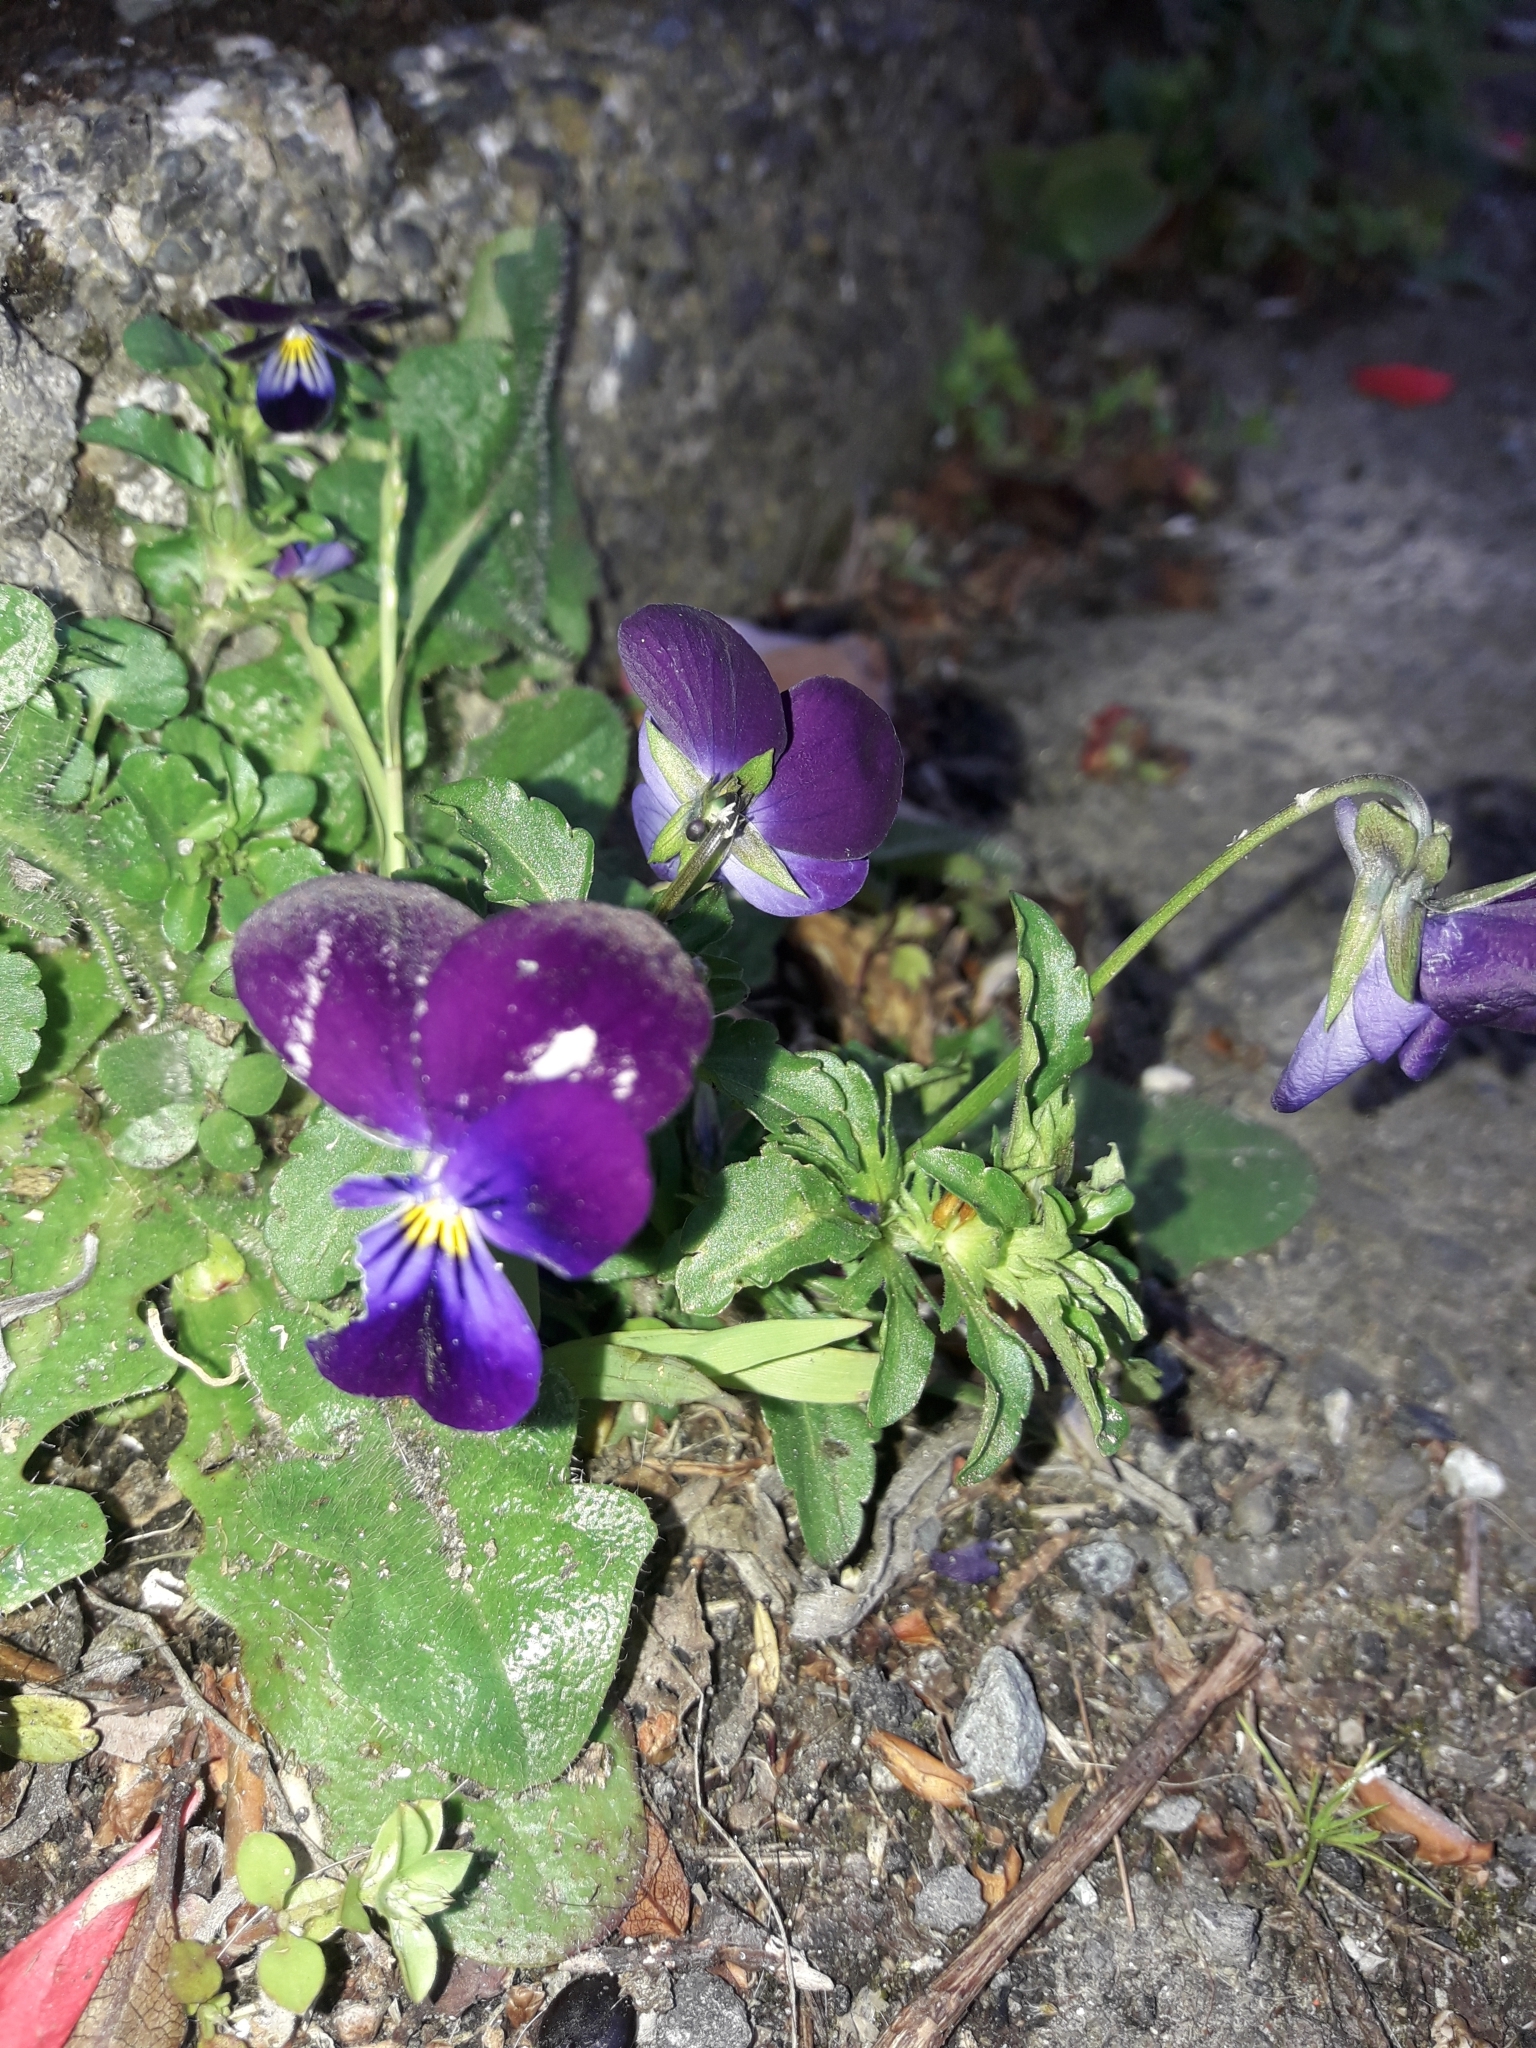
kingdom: Plantae
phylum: Tracheophyta
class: Magnoliopsida
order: Malpighiales
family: Violaceae
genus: Viola
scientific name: Viola williamsii
